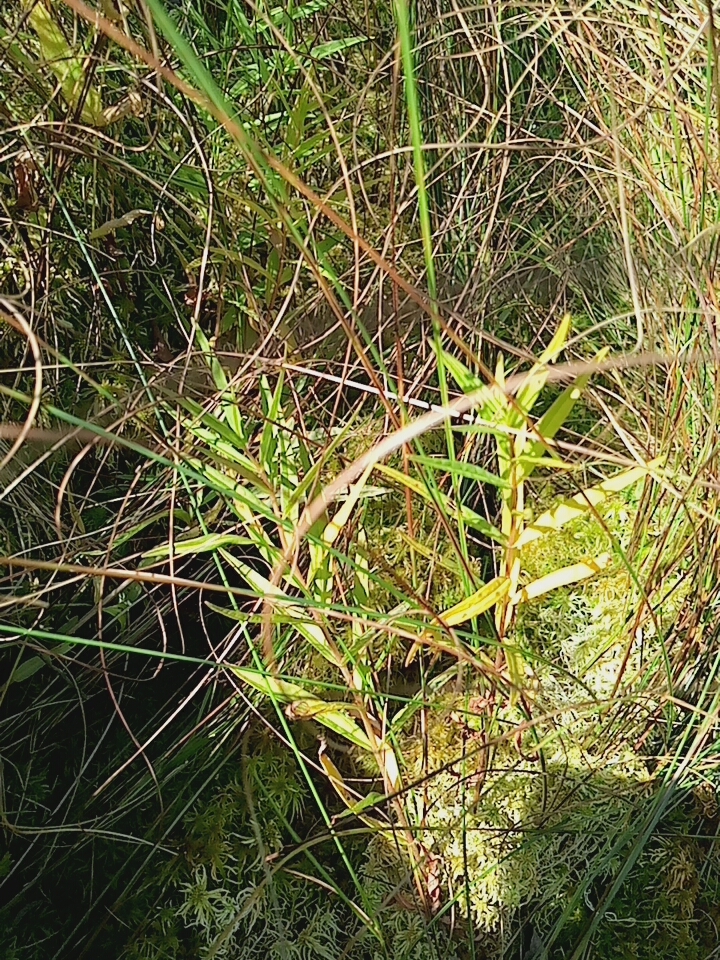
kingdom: Plantae
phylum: Tracheophyta
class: Magnoliopsida
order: Ericales
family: Primulaceae
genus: Lysimachia
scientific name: Lysimachia thyrsiflora
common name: Tufted loosestrife
